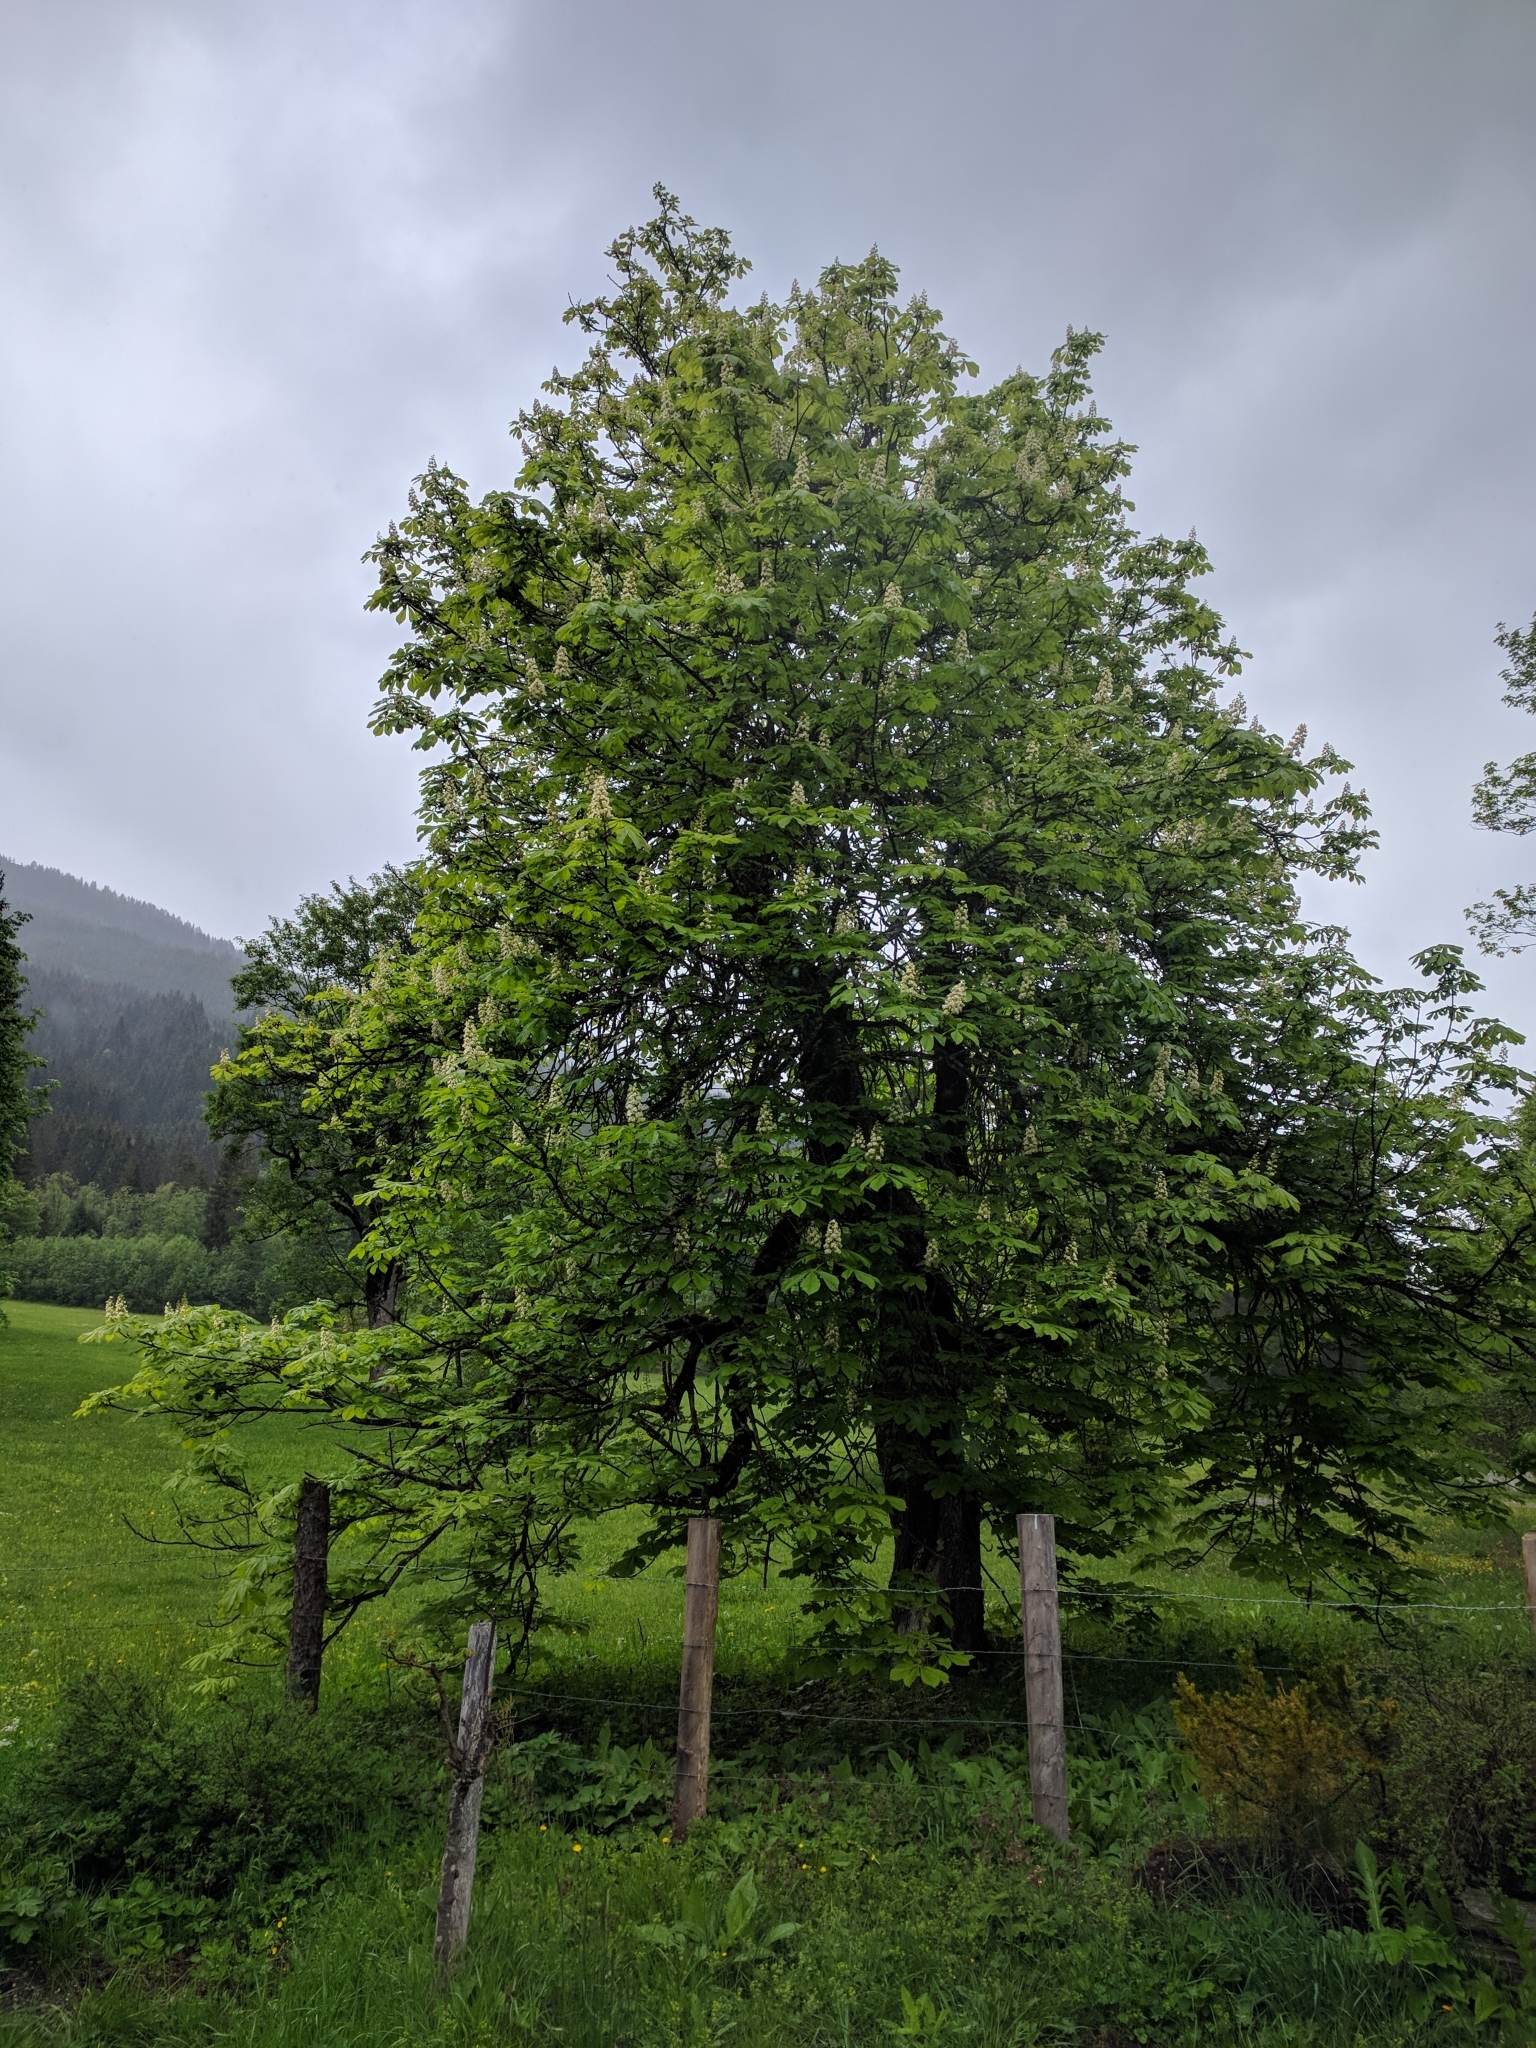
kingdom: Plantae
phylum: Tracheophyta
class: Magnoliopsida
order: Sapindales
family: Sapindaceae
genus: Aesculus
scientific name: Aesculus hippocastanum
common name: Horse-chestnut
